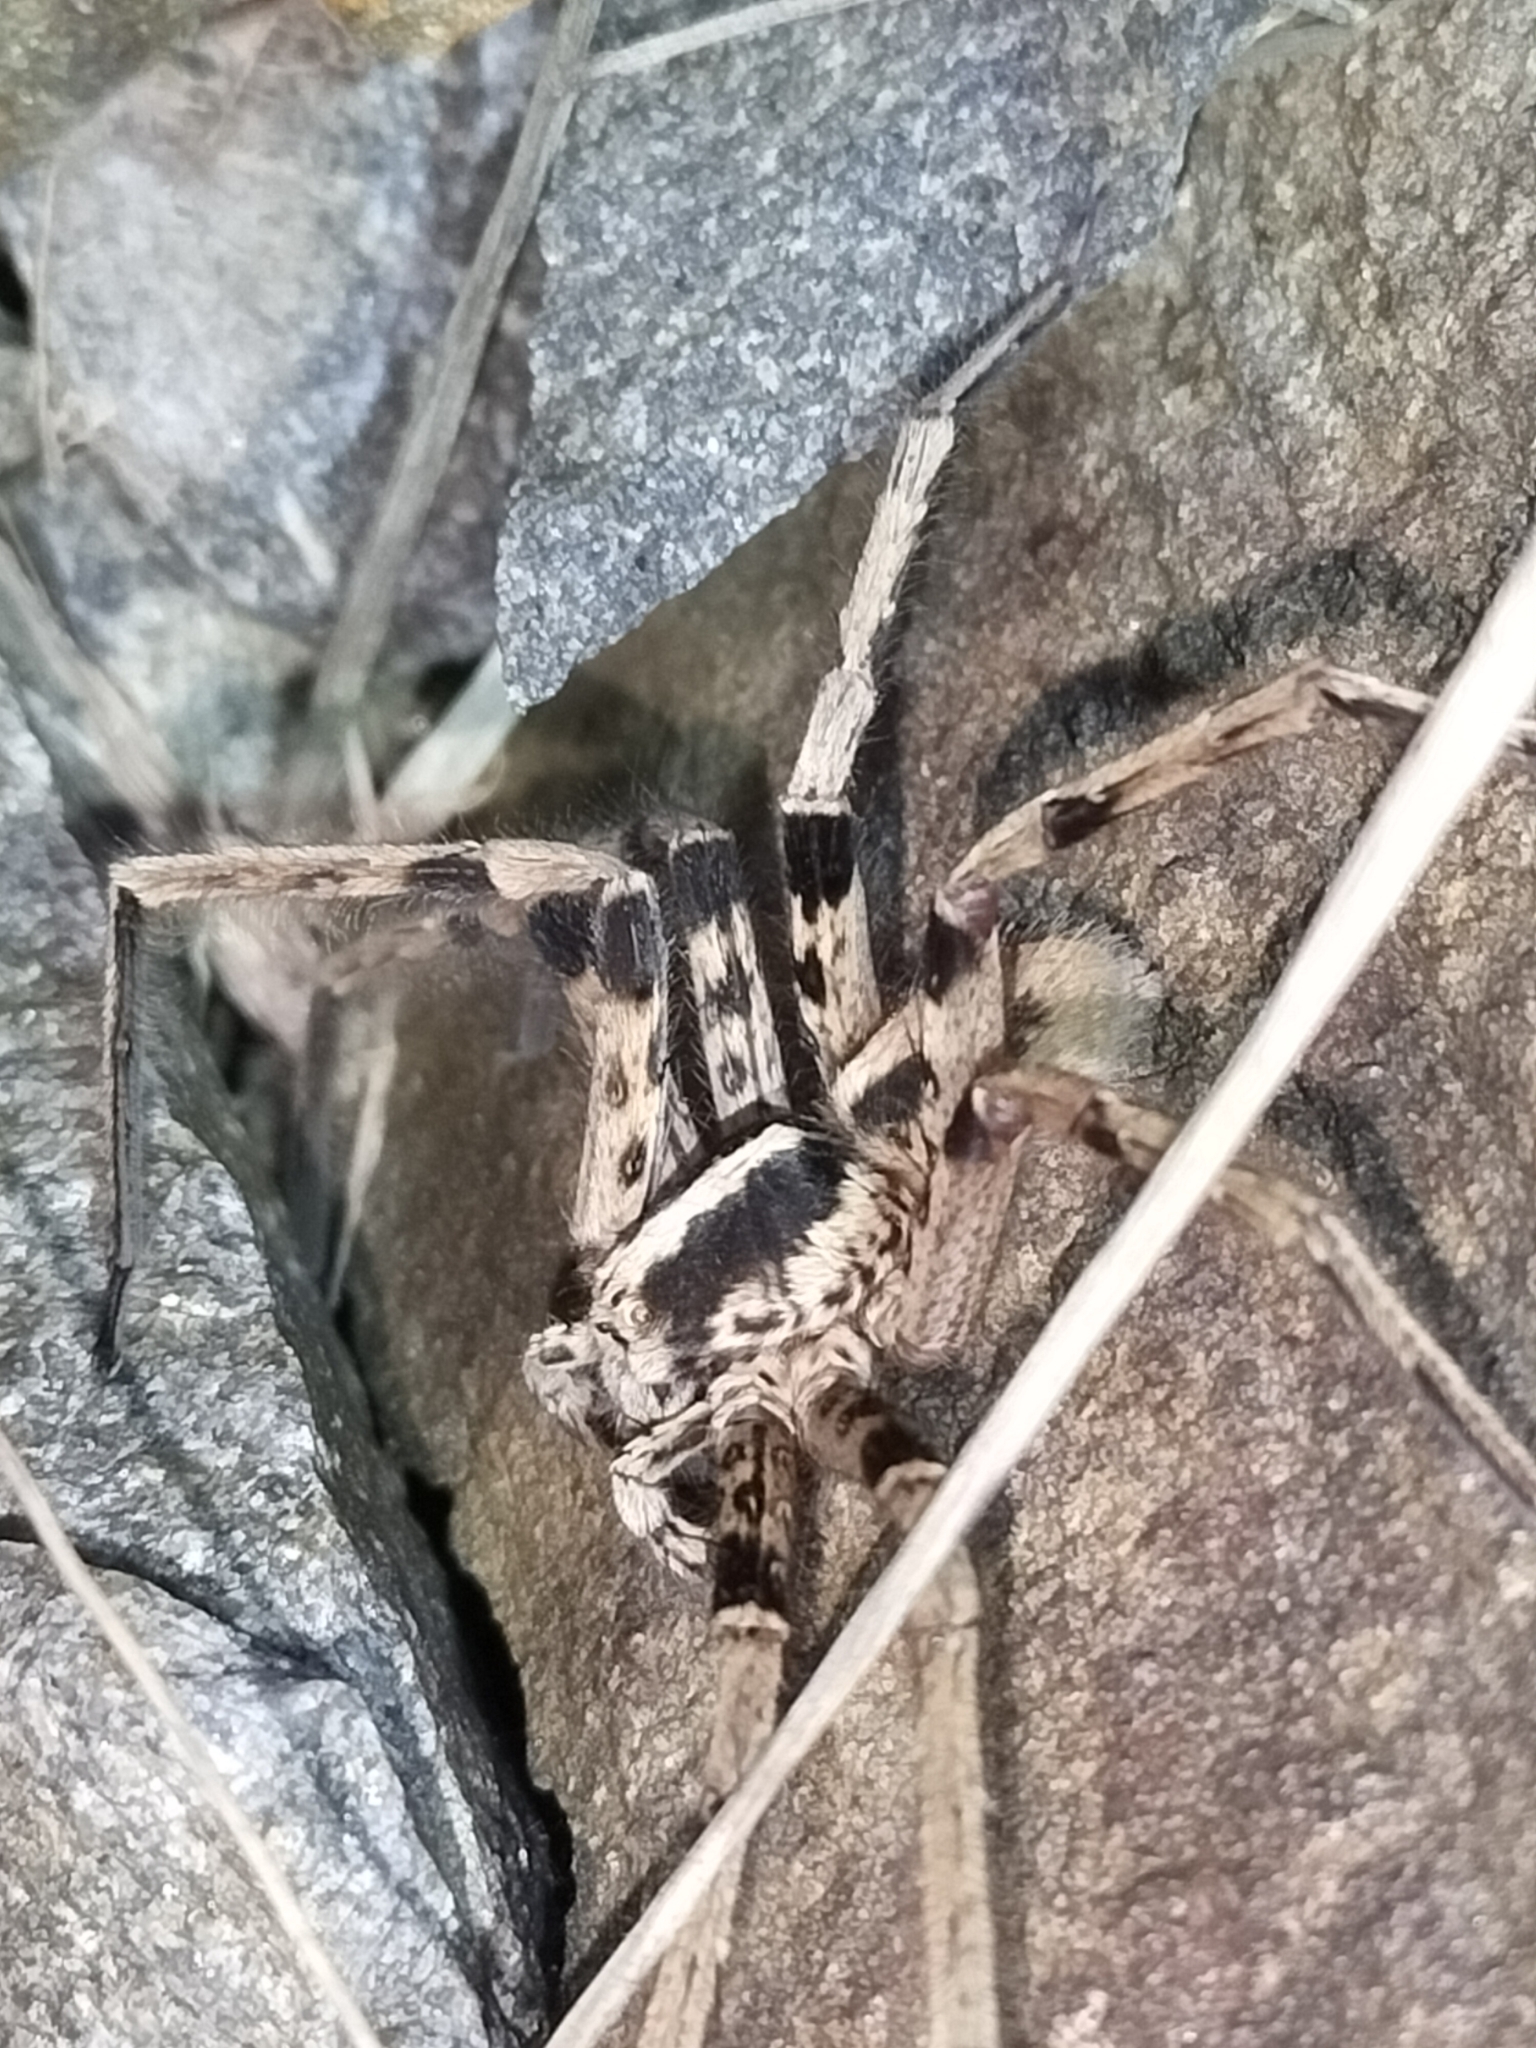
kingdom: Animalia
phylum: Arthropoda
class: Arachnida
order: Araneae
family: Sparassidae
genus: Yiinthi
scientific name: Yiinthi lycodes
